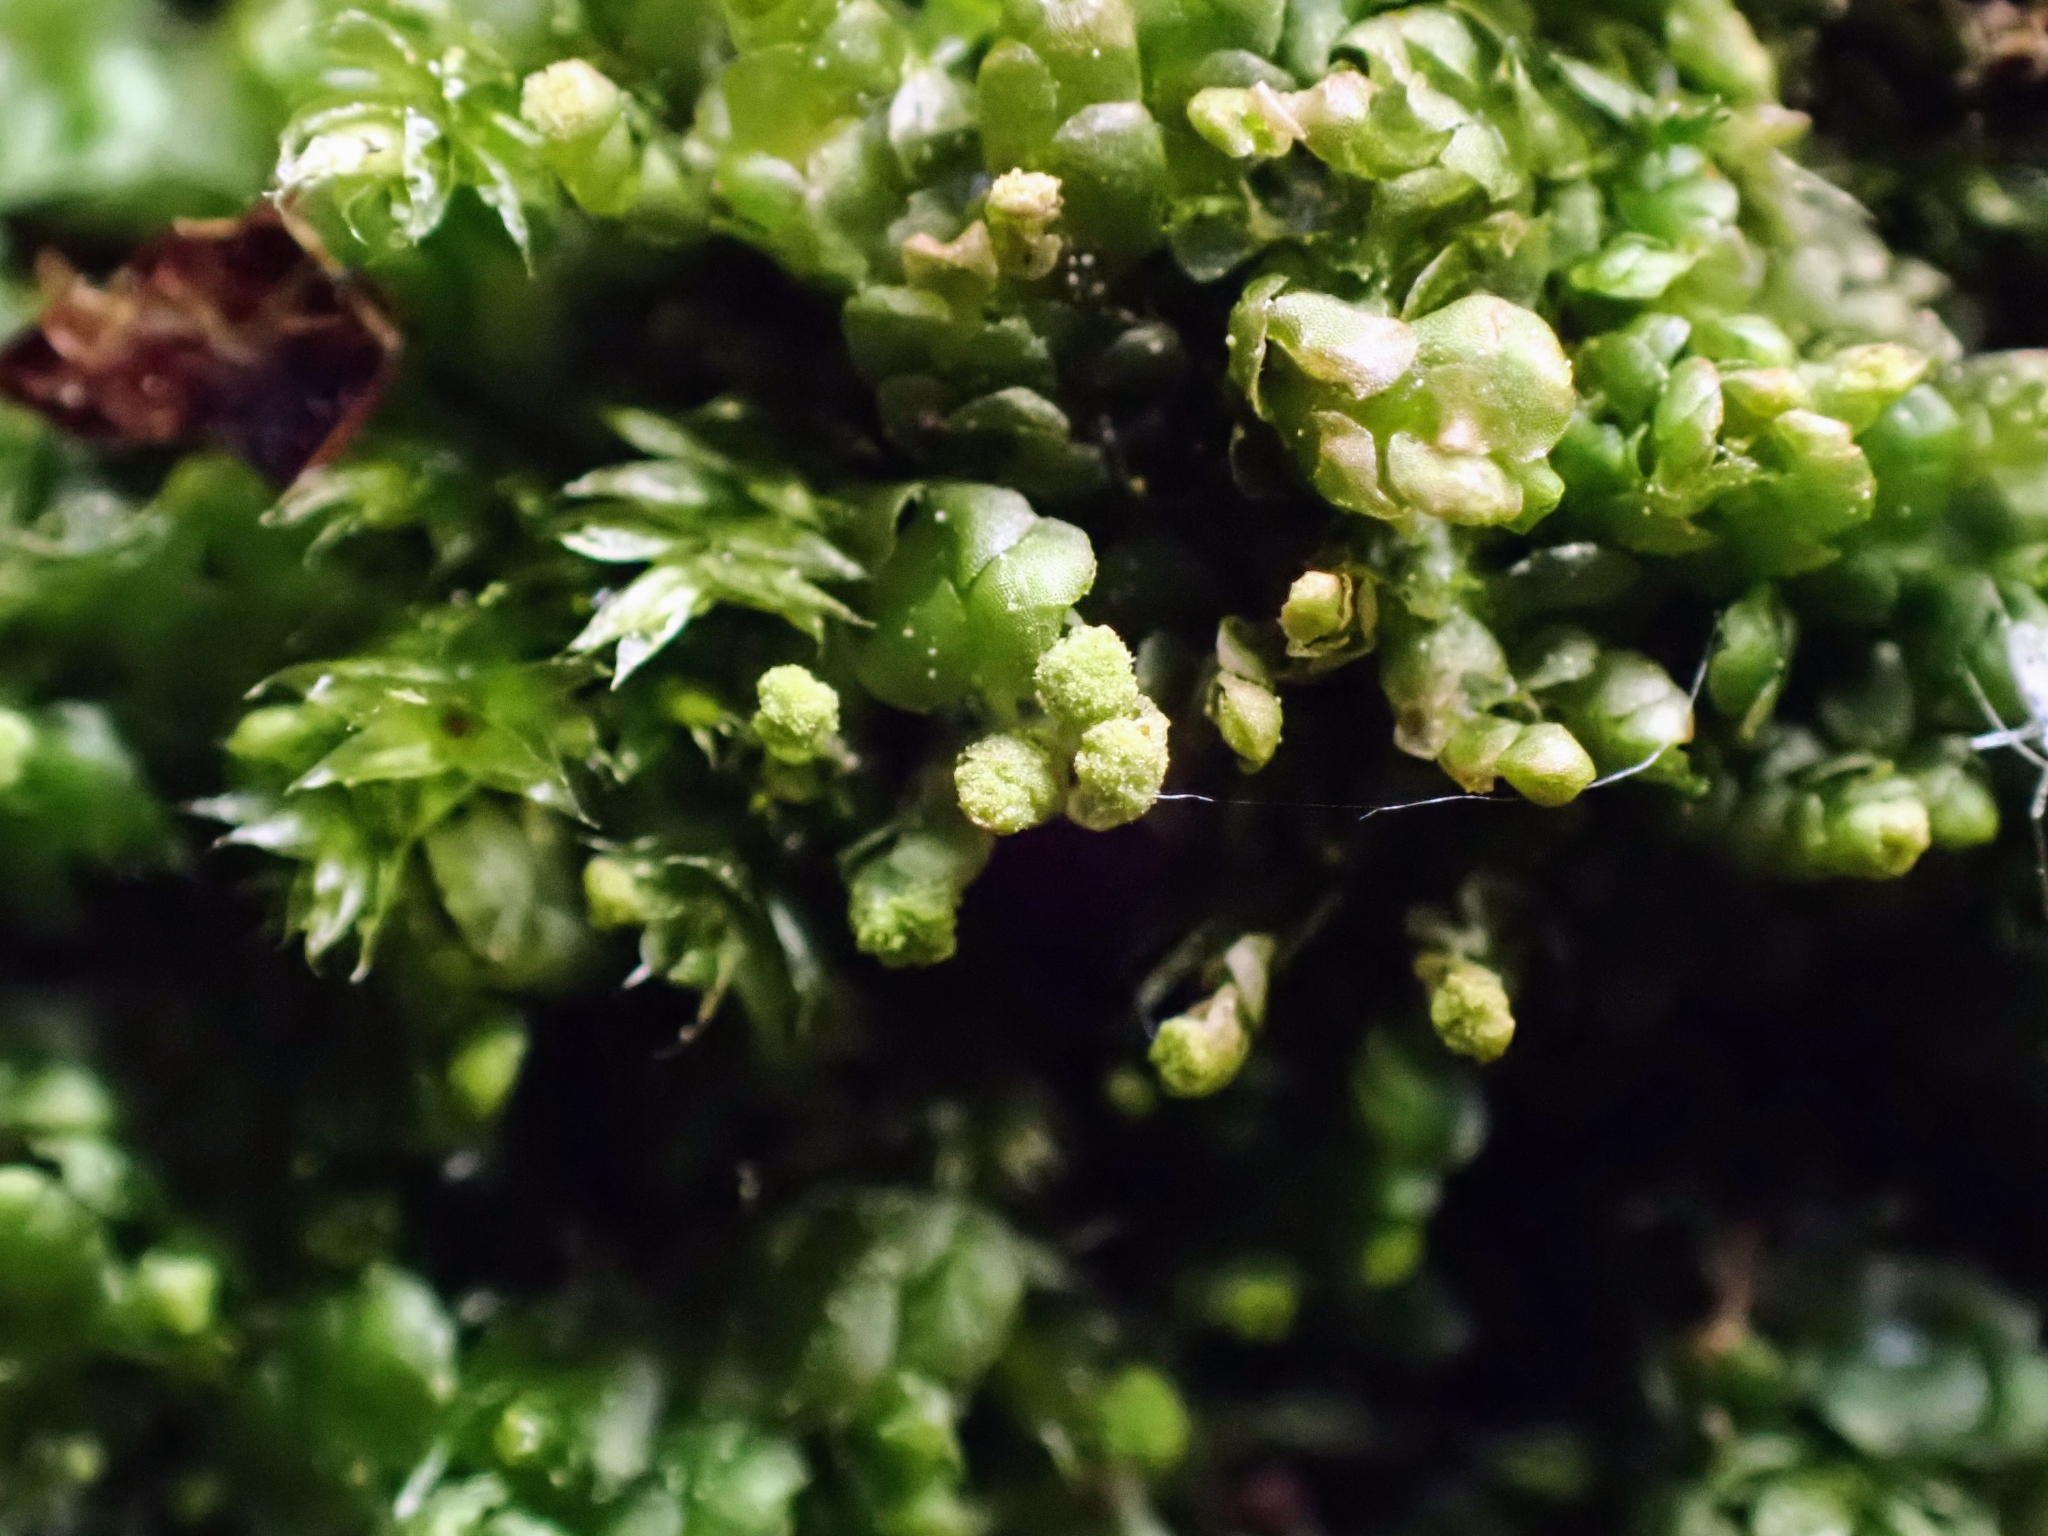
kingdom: Plantae
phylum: Marchantiophyta
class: Jungermanniopsida
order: Jungermanniales
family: Calypogeiaceae
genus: Calypogeia
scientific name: Calypogeia muelleriana
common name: Mueller s pouchwort
